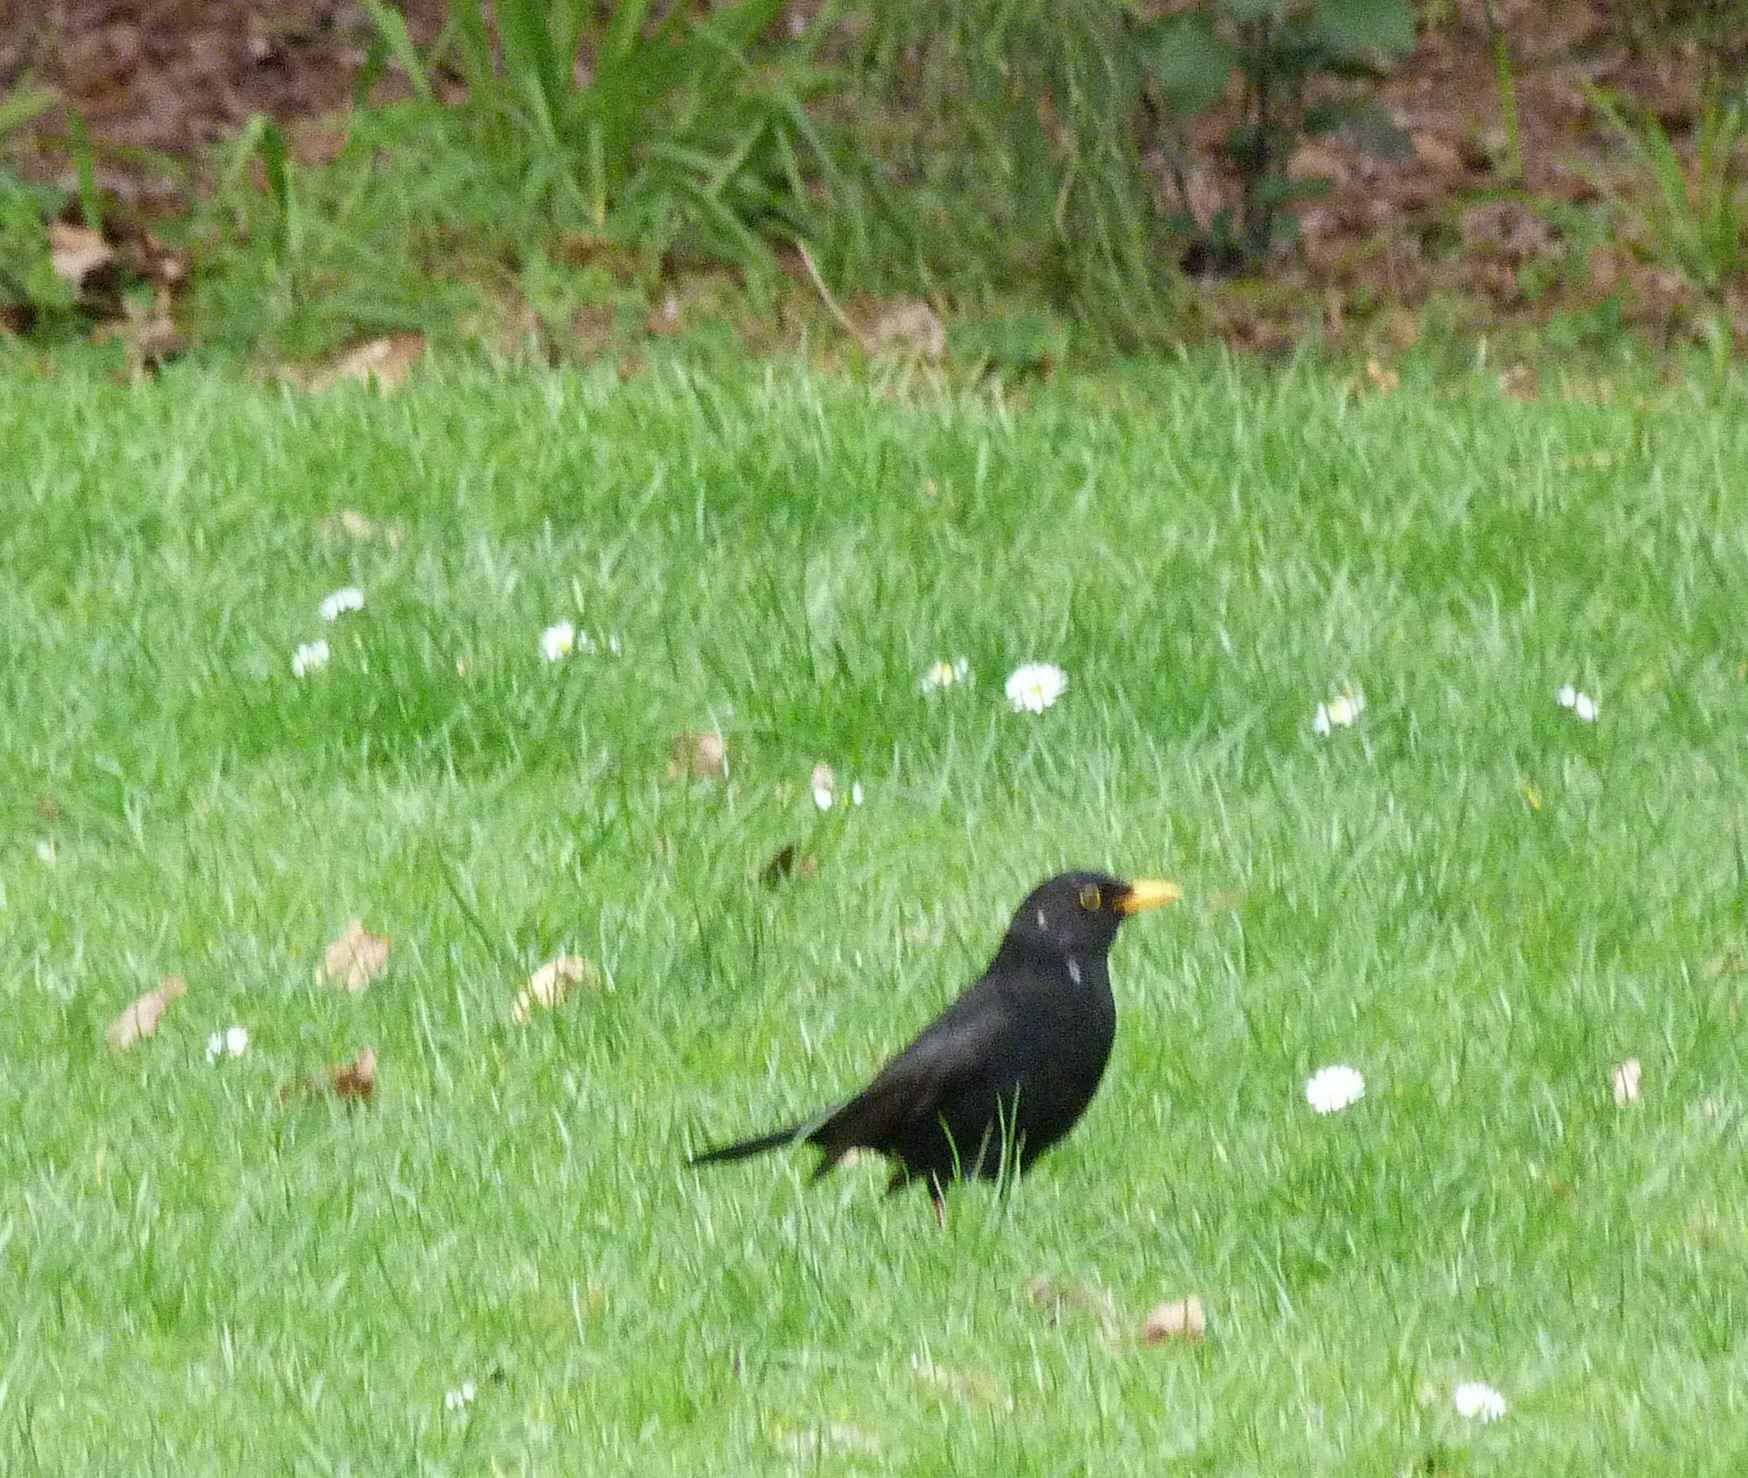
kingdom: Animalia
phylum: Chordata
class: Aves
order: Passeriformes
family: Turdidae
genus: Turdus
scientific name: Turdus merula
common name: Common blackbird
